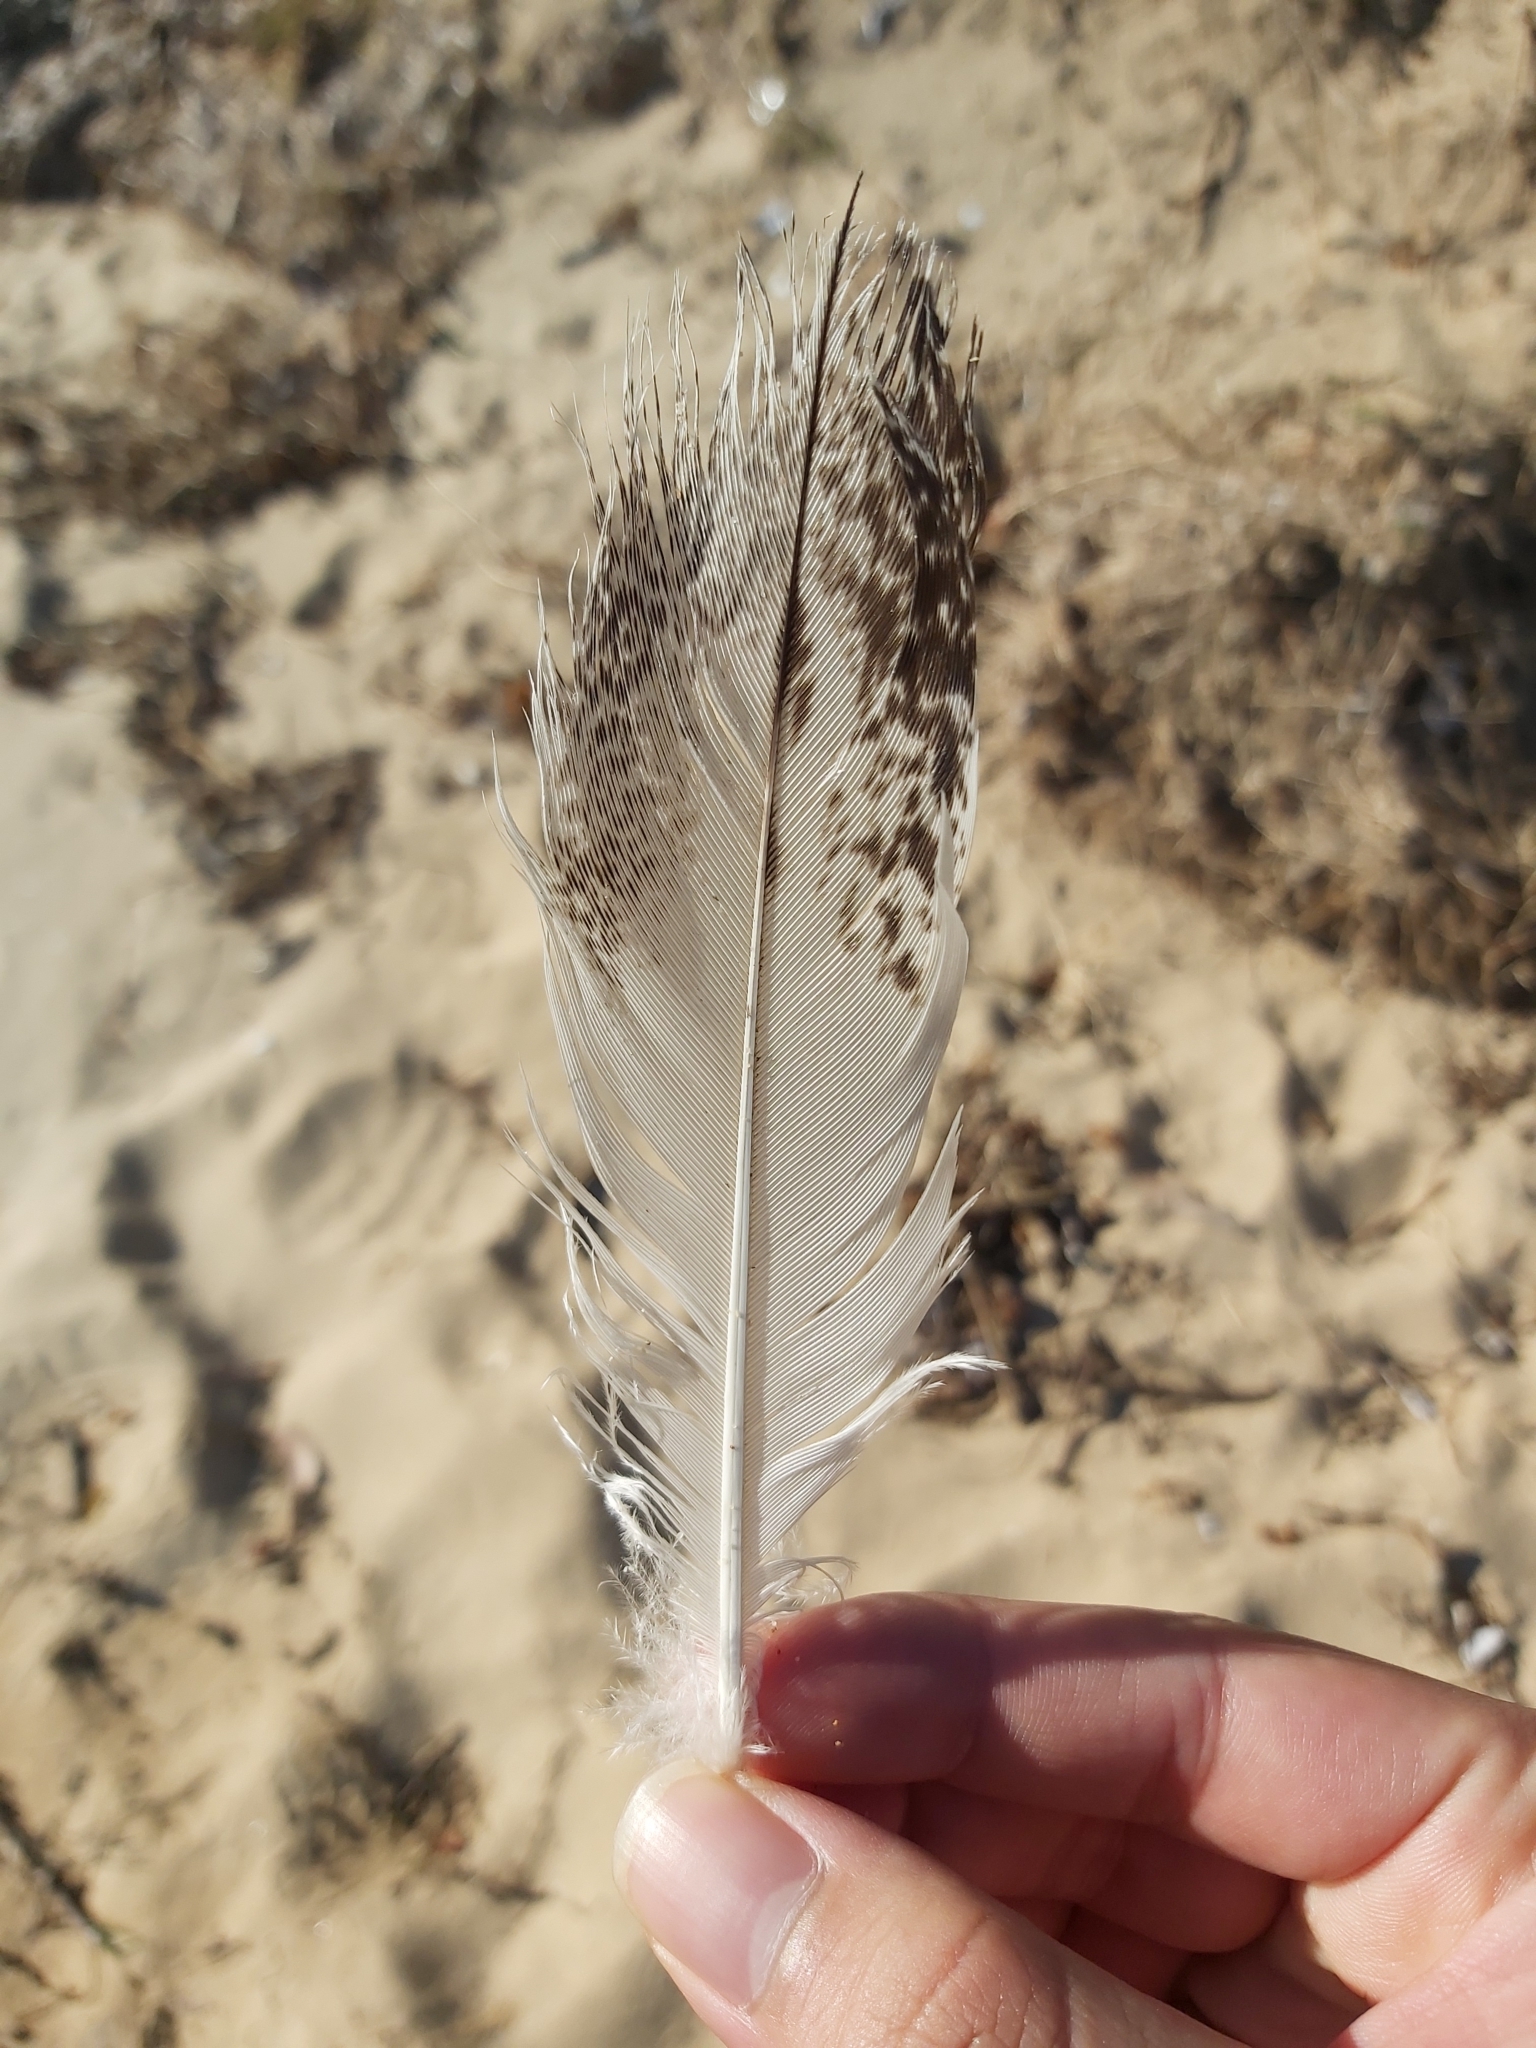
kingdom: Animalia
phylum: Chordata
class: Aves
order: Pelecaniformes
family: Threskiornithidae
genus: Threskiornis
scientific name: Threskiornis molucca
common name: Australian white ibis
